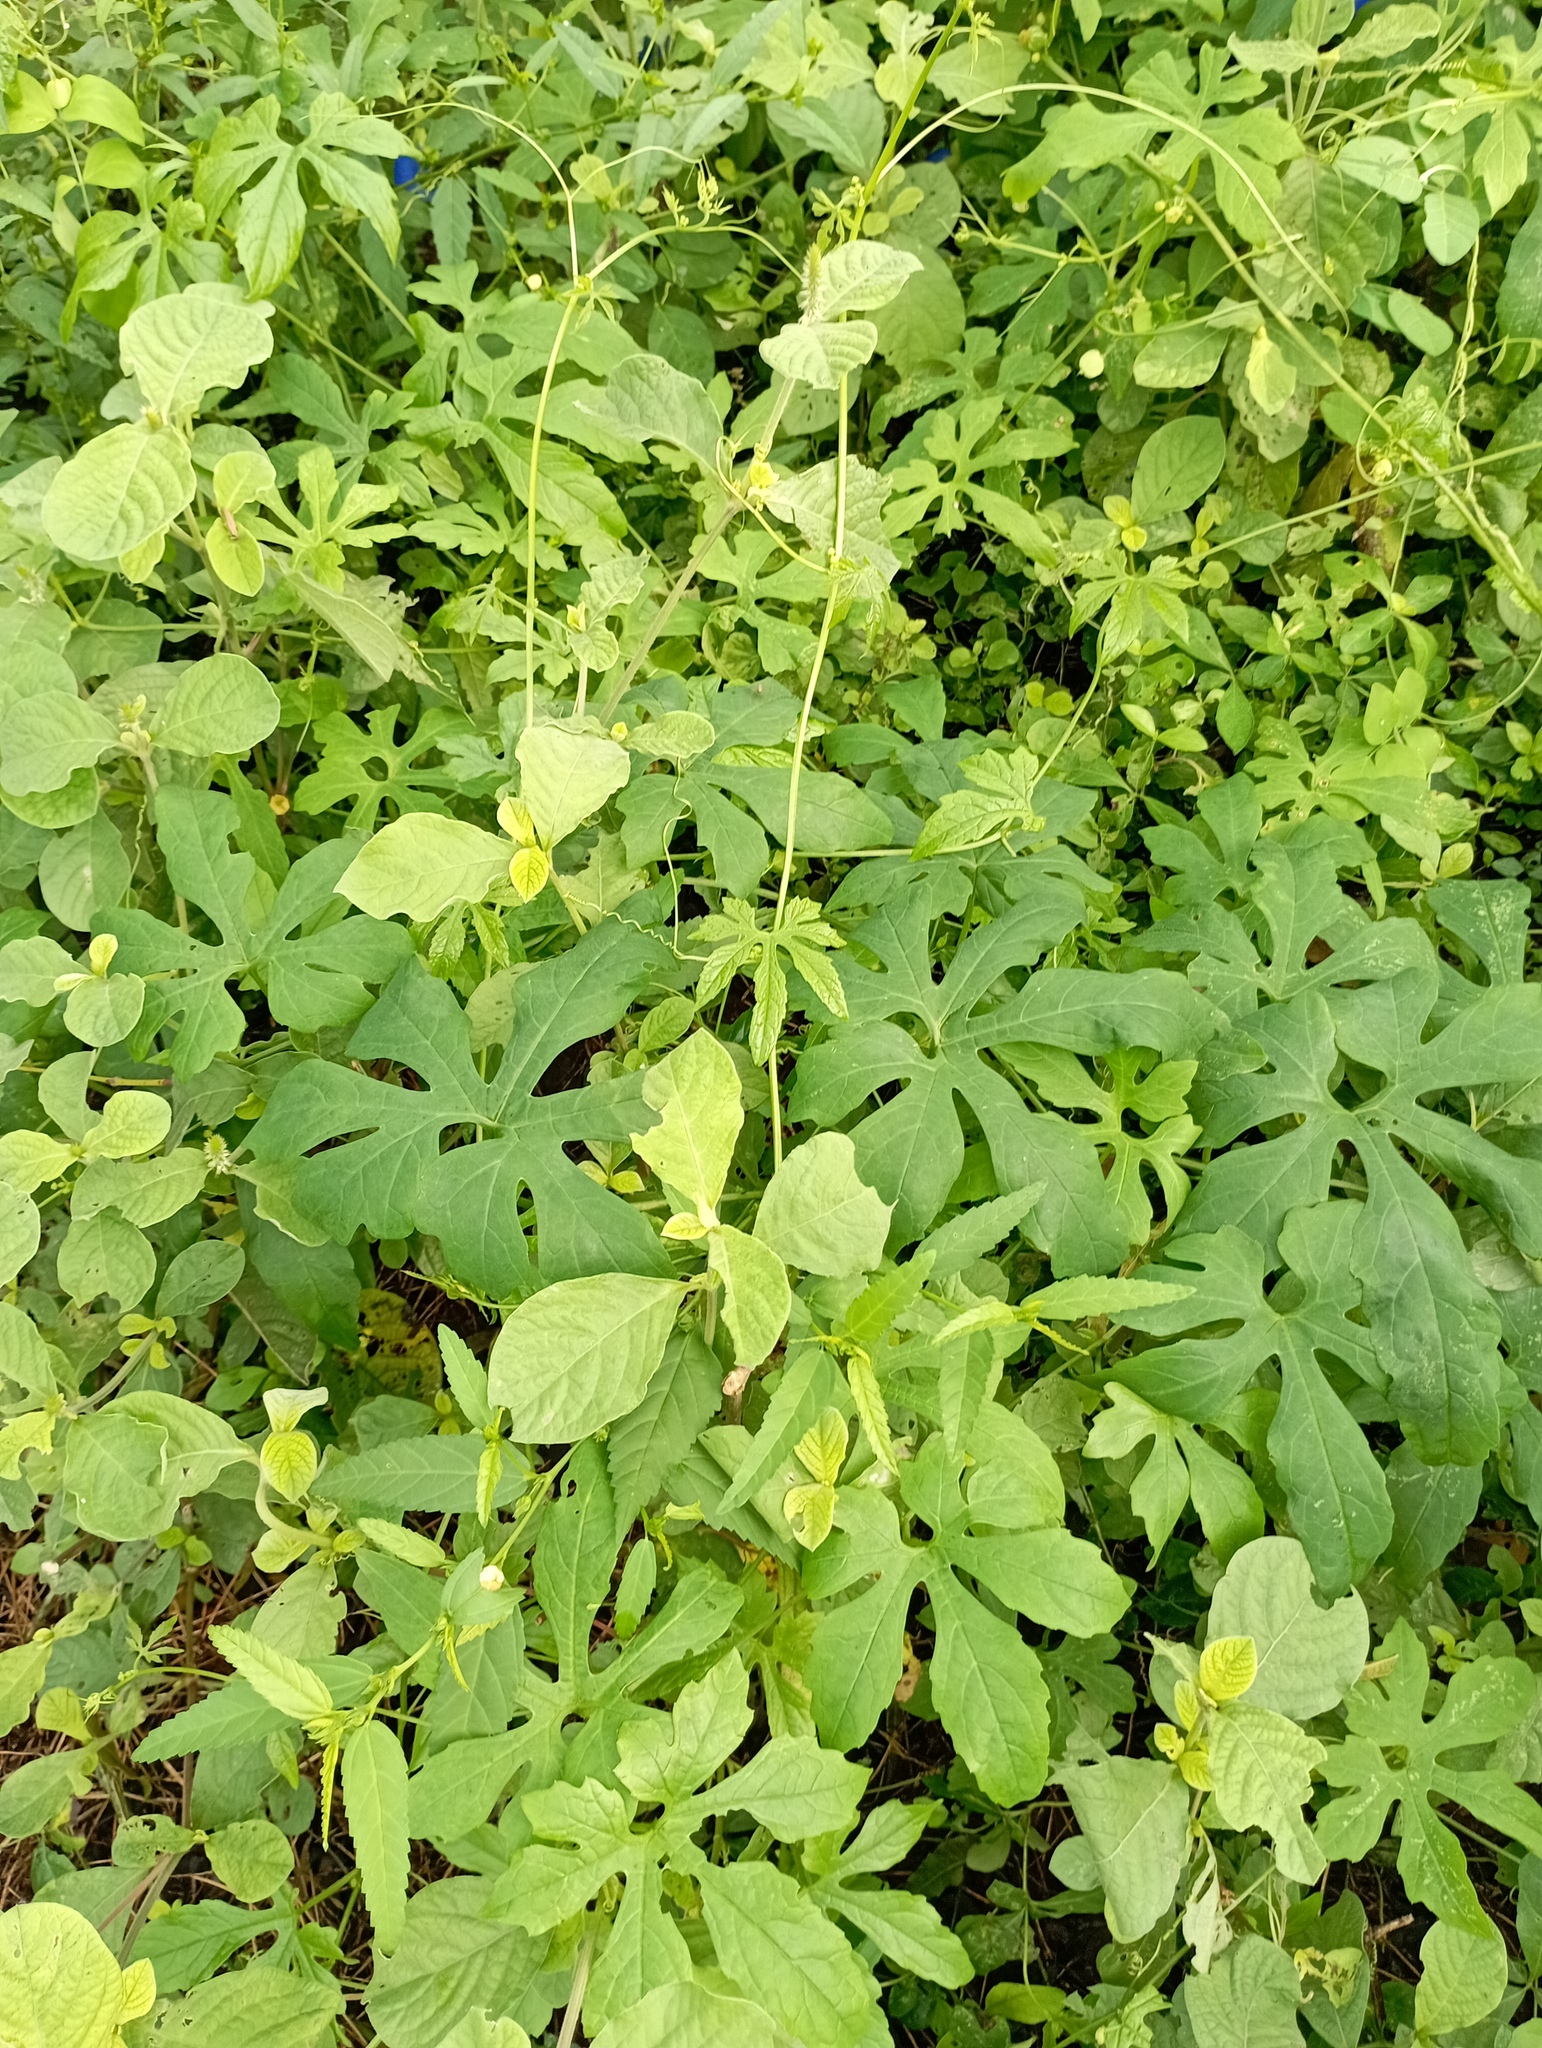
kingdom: Plantae
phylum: Tracheophyta
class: Magnoliopsida
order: Cucurbitales
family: Cucurbitaceae
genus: Diplocyclos
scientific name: Diplocyclos palmatus
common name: Striped-cucumber
